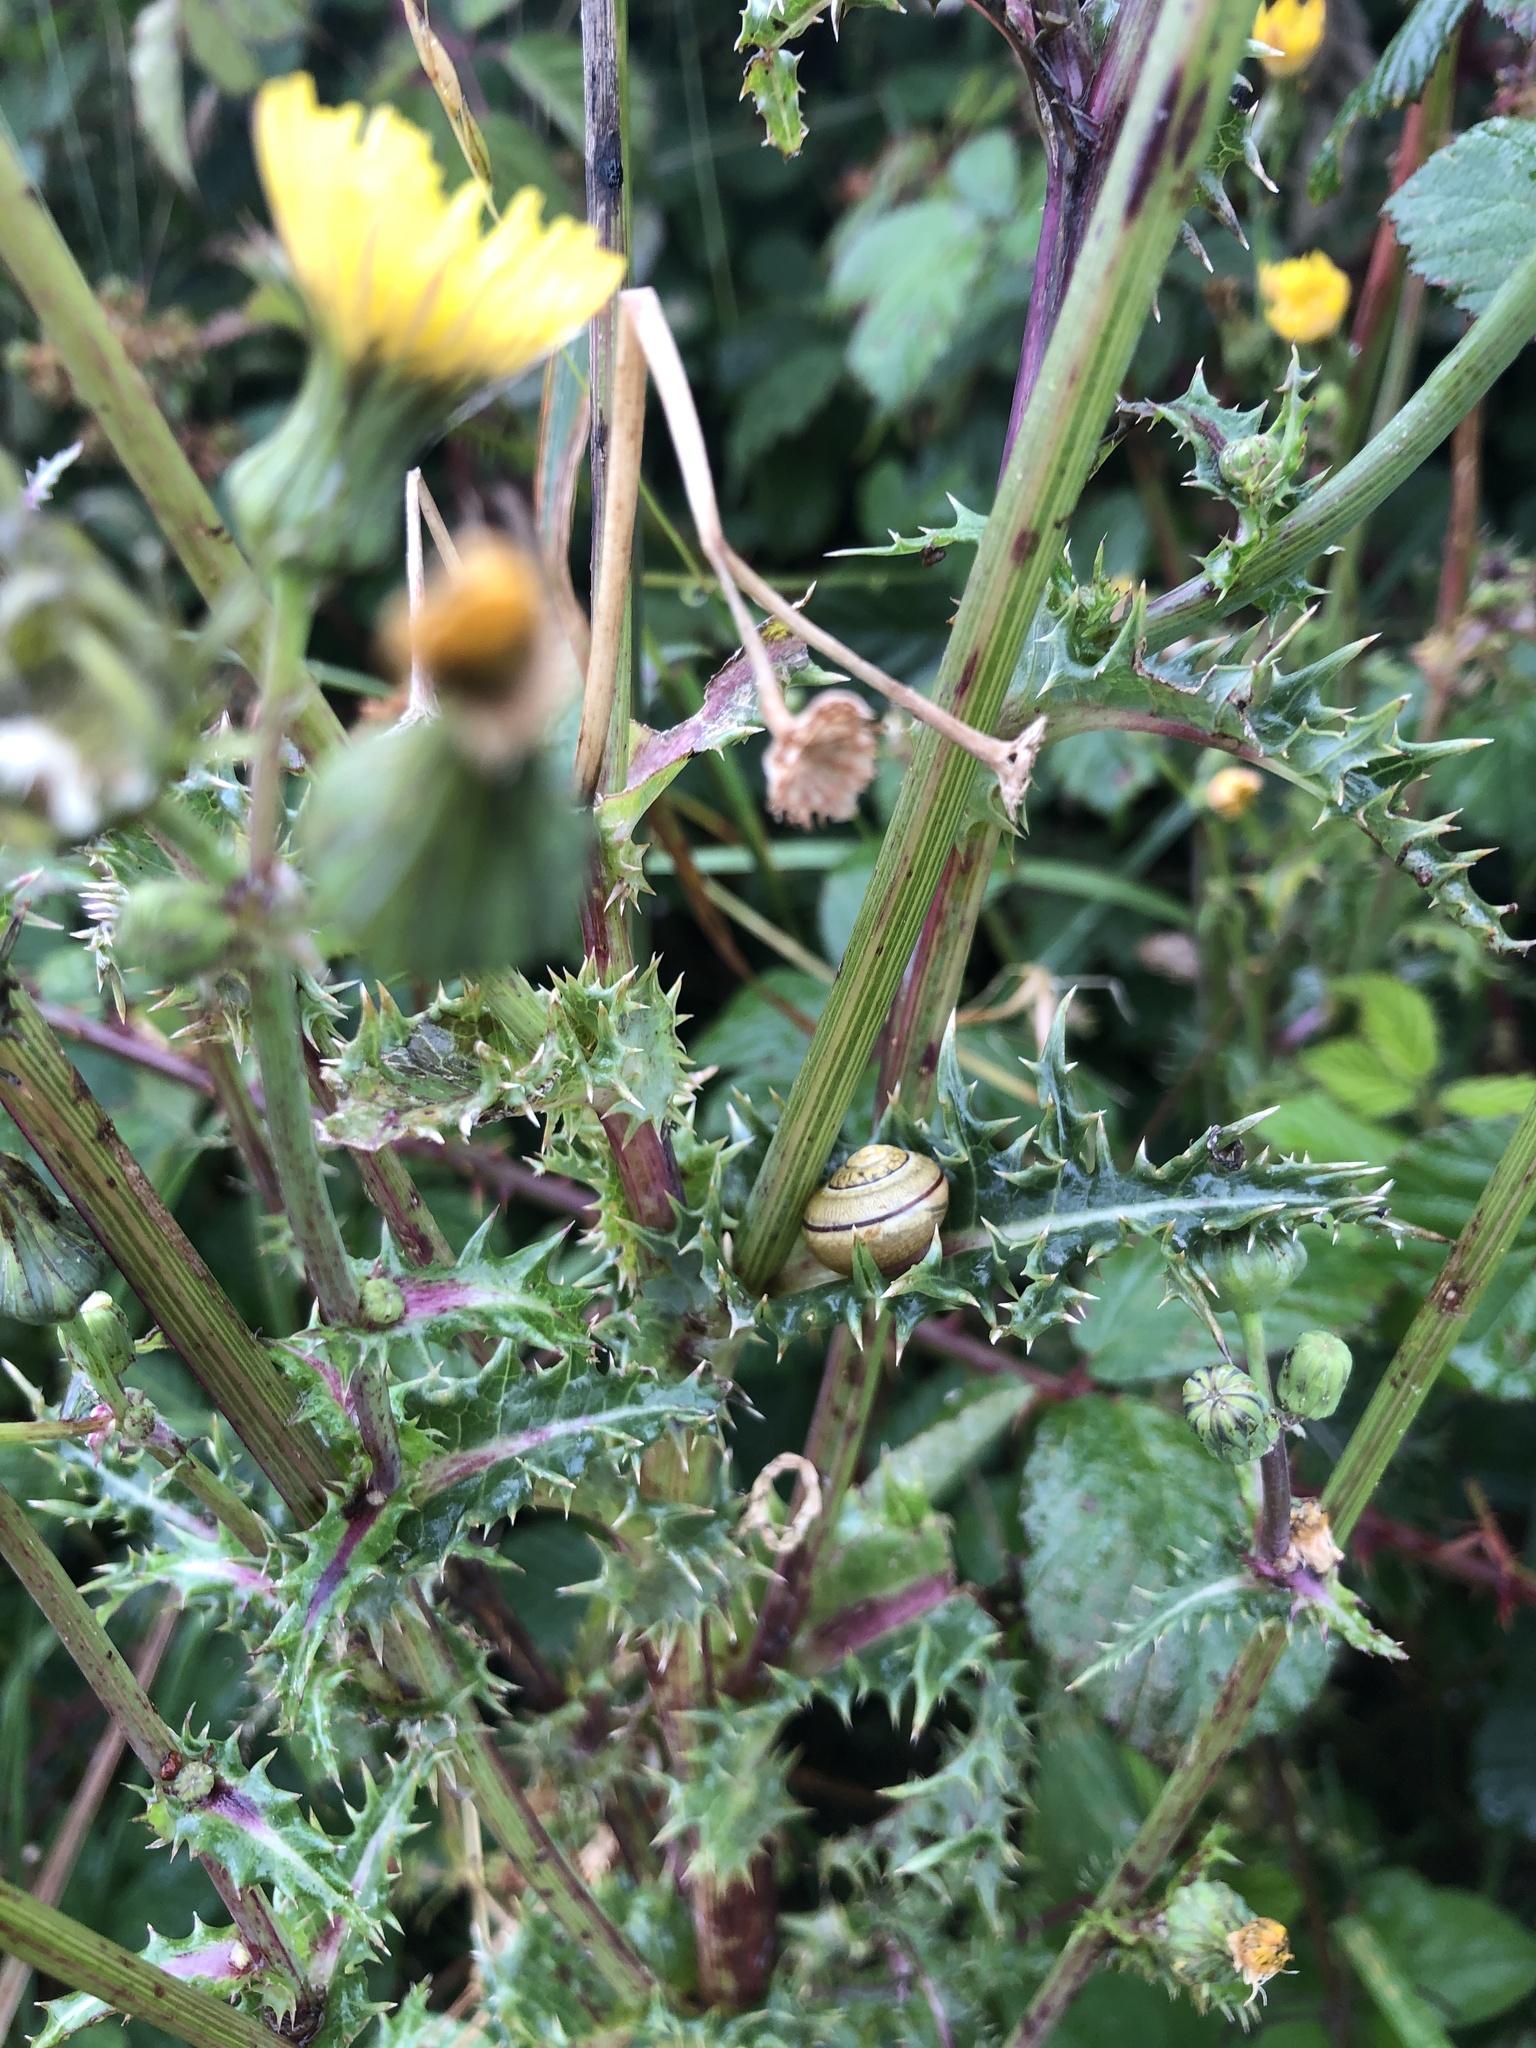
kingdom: Animalia
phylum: Mollusca
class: Gastropoda
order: Stylommatophora
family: Helicidae
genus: Theba
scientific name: Theba pisana
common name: White snail
